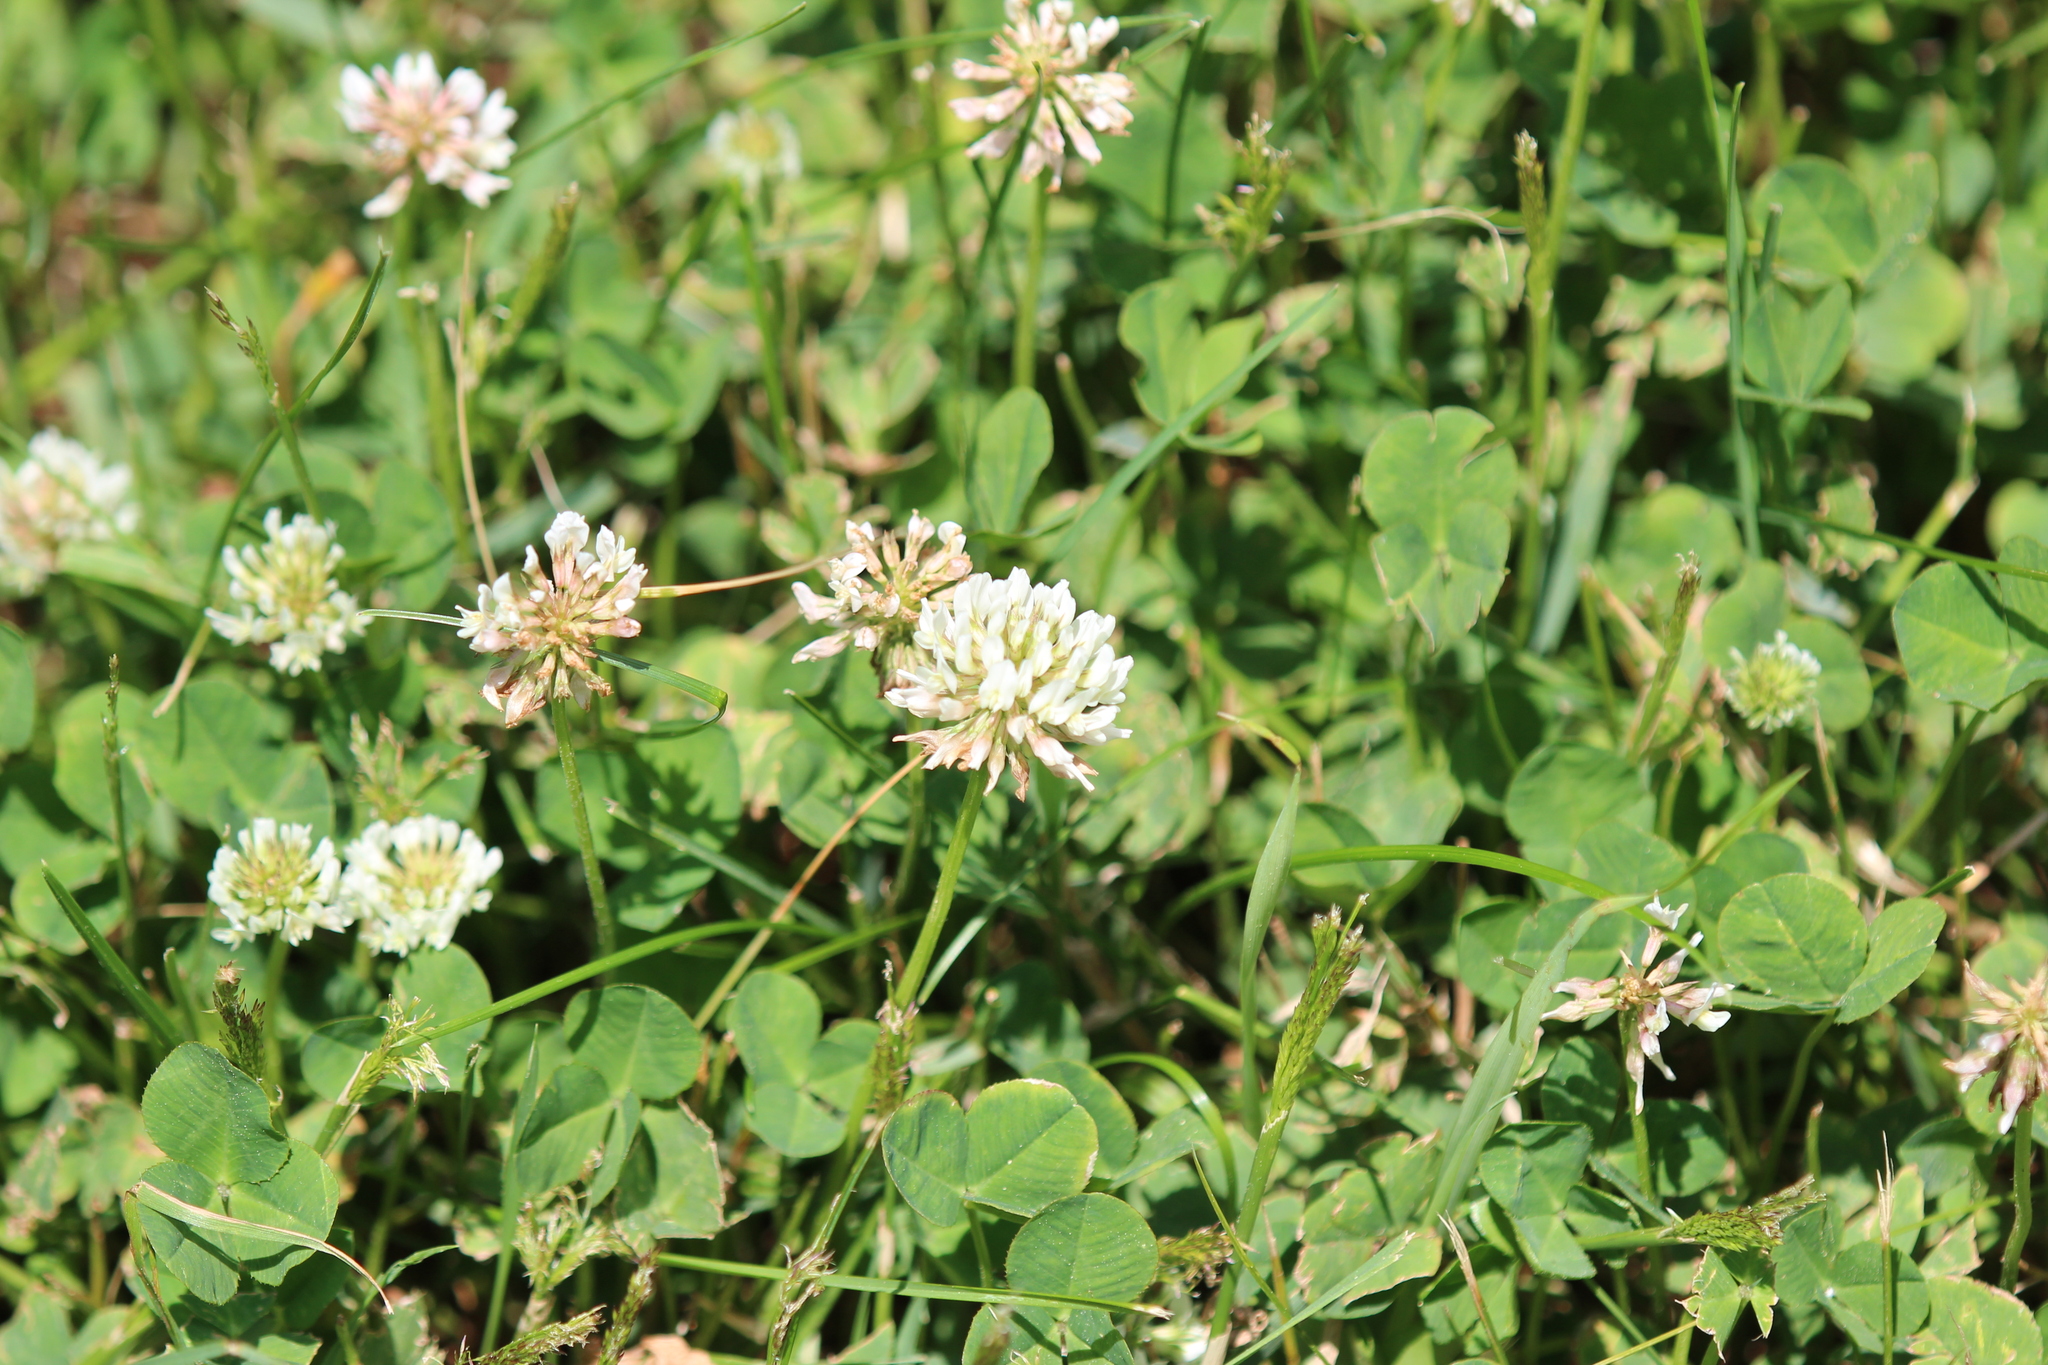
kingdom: Plantae
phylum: Tracheophyta
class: Magnoliopsida
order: Fabales
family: Fabaceae
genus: Trifolium
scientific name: Trifolium repens
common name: White clover
